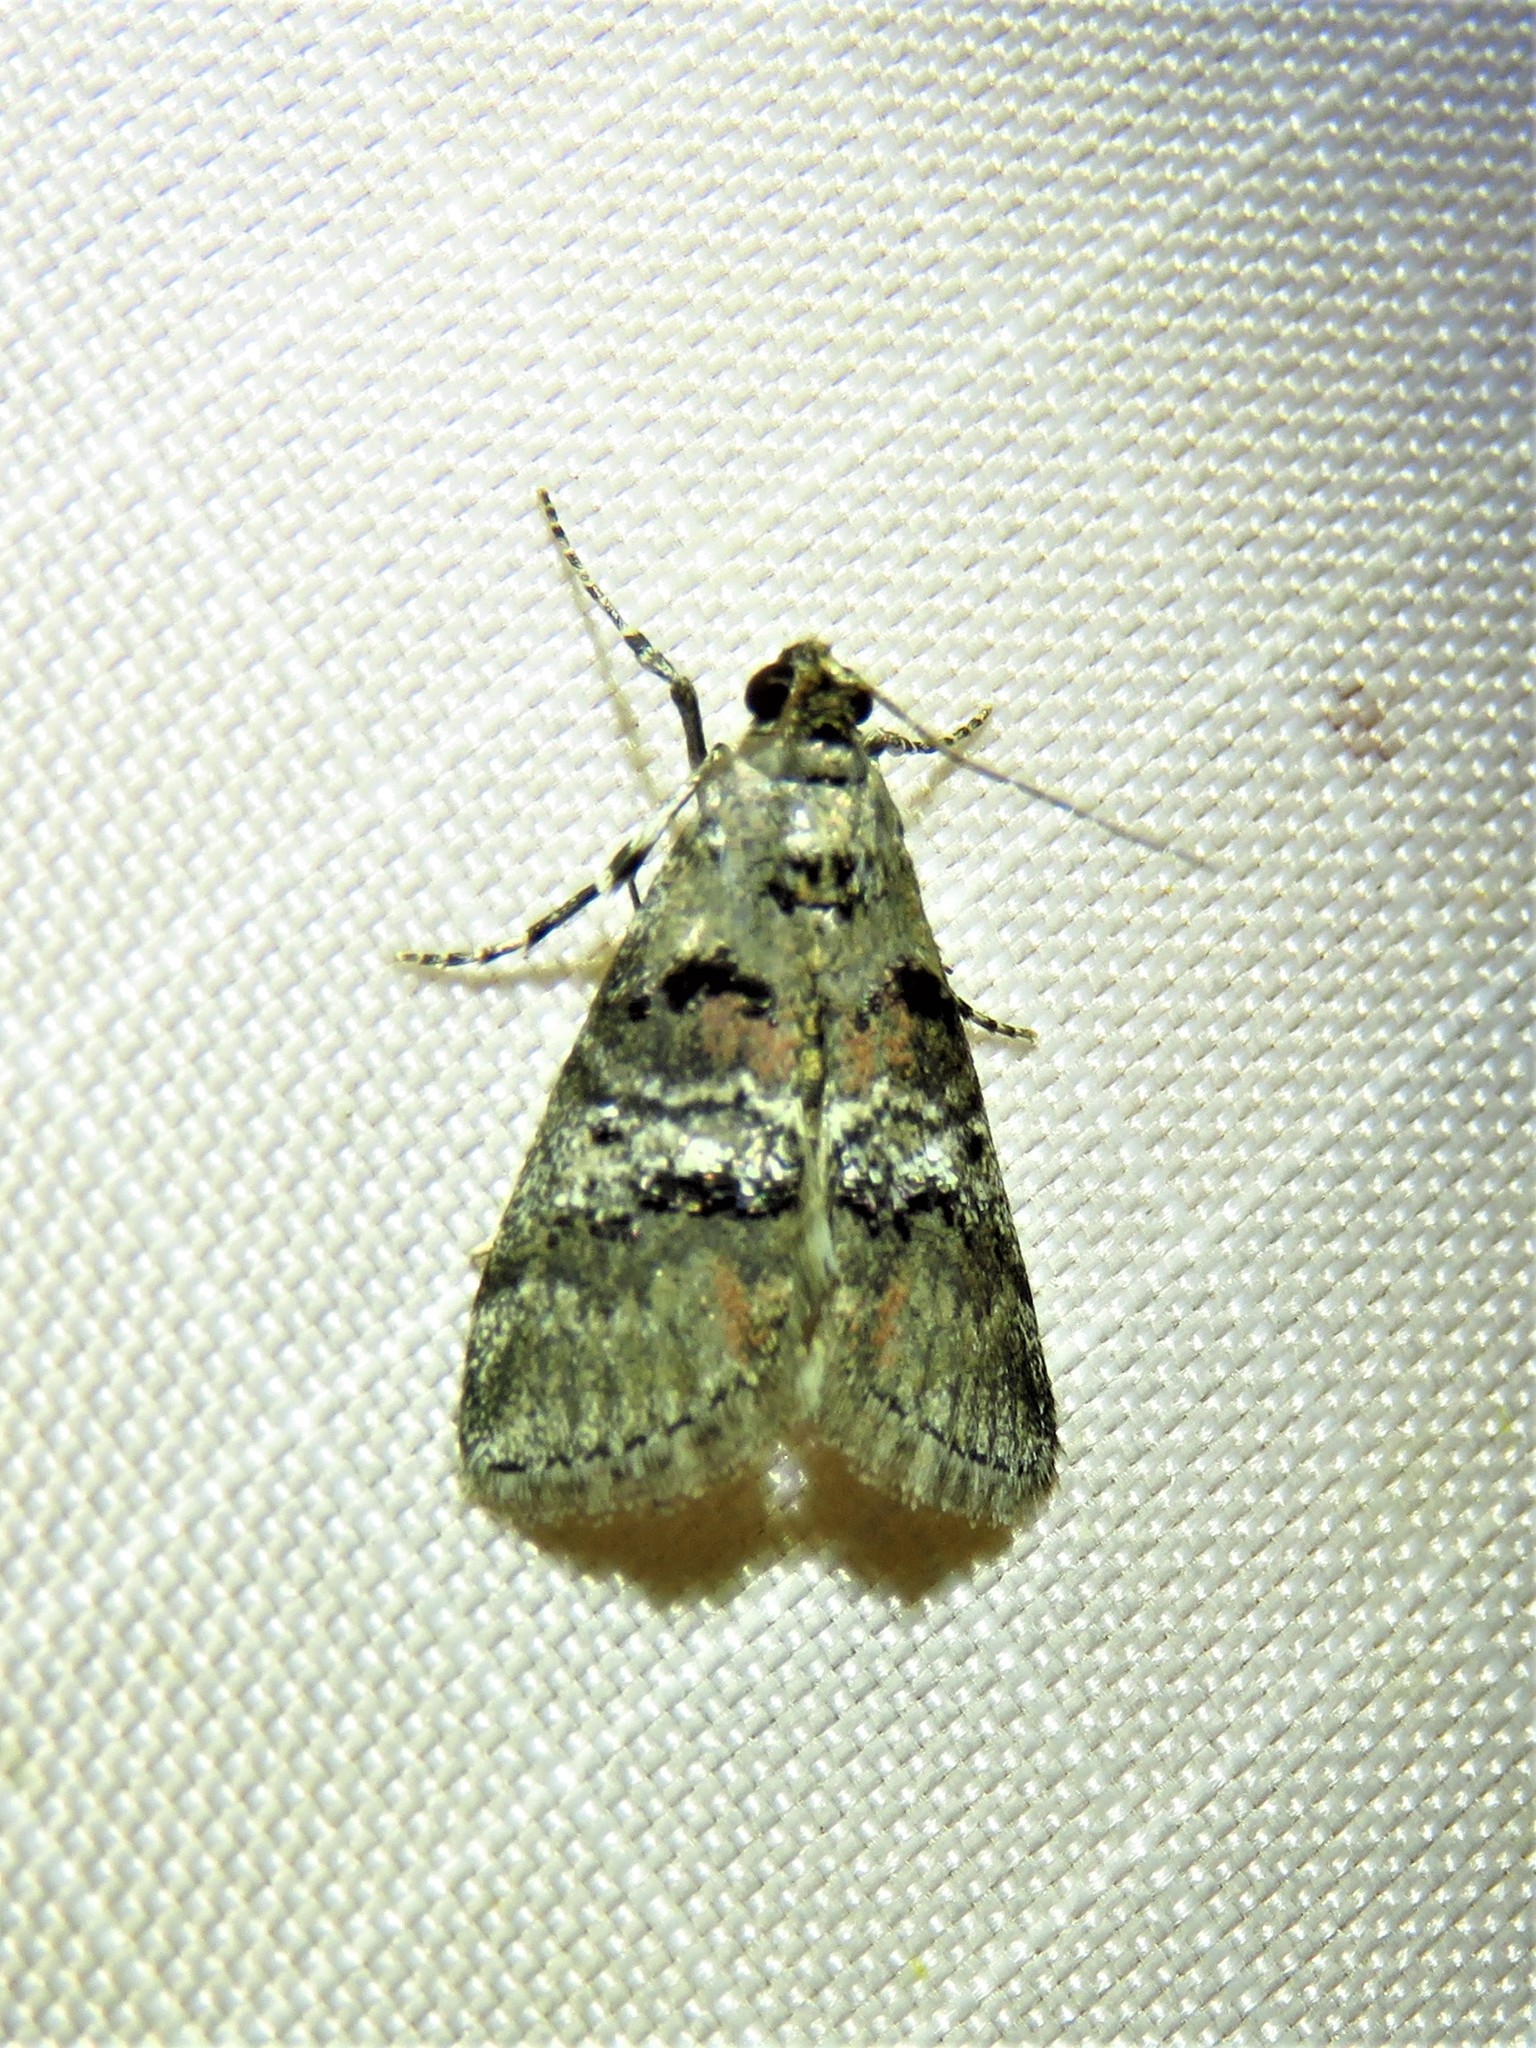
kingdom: Animalia
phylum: Arthropoda
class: Insecta
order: Lepidoptera
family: Pyralidae
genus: Pococera
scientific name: Pococera asperatella
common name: Maple webworm moth
